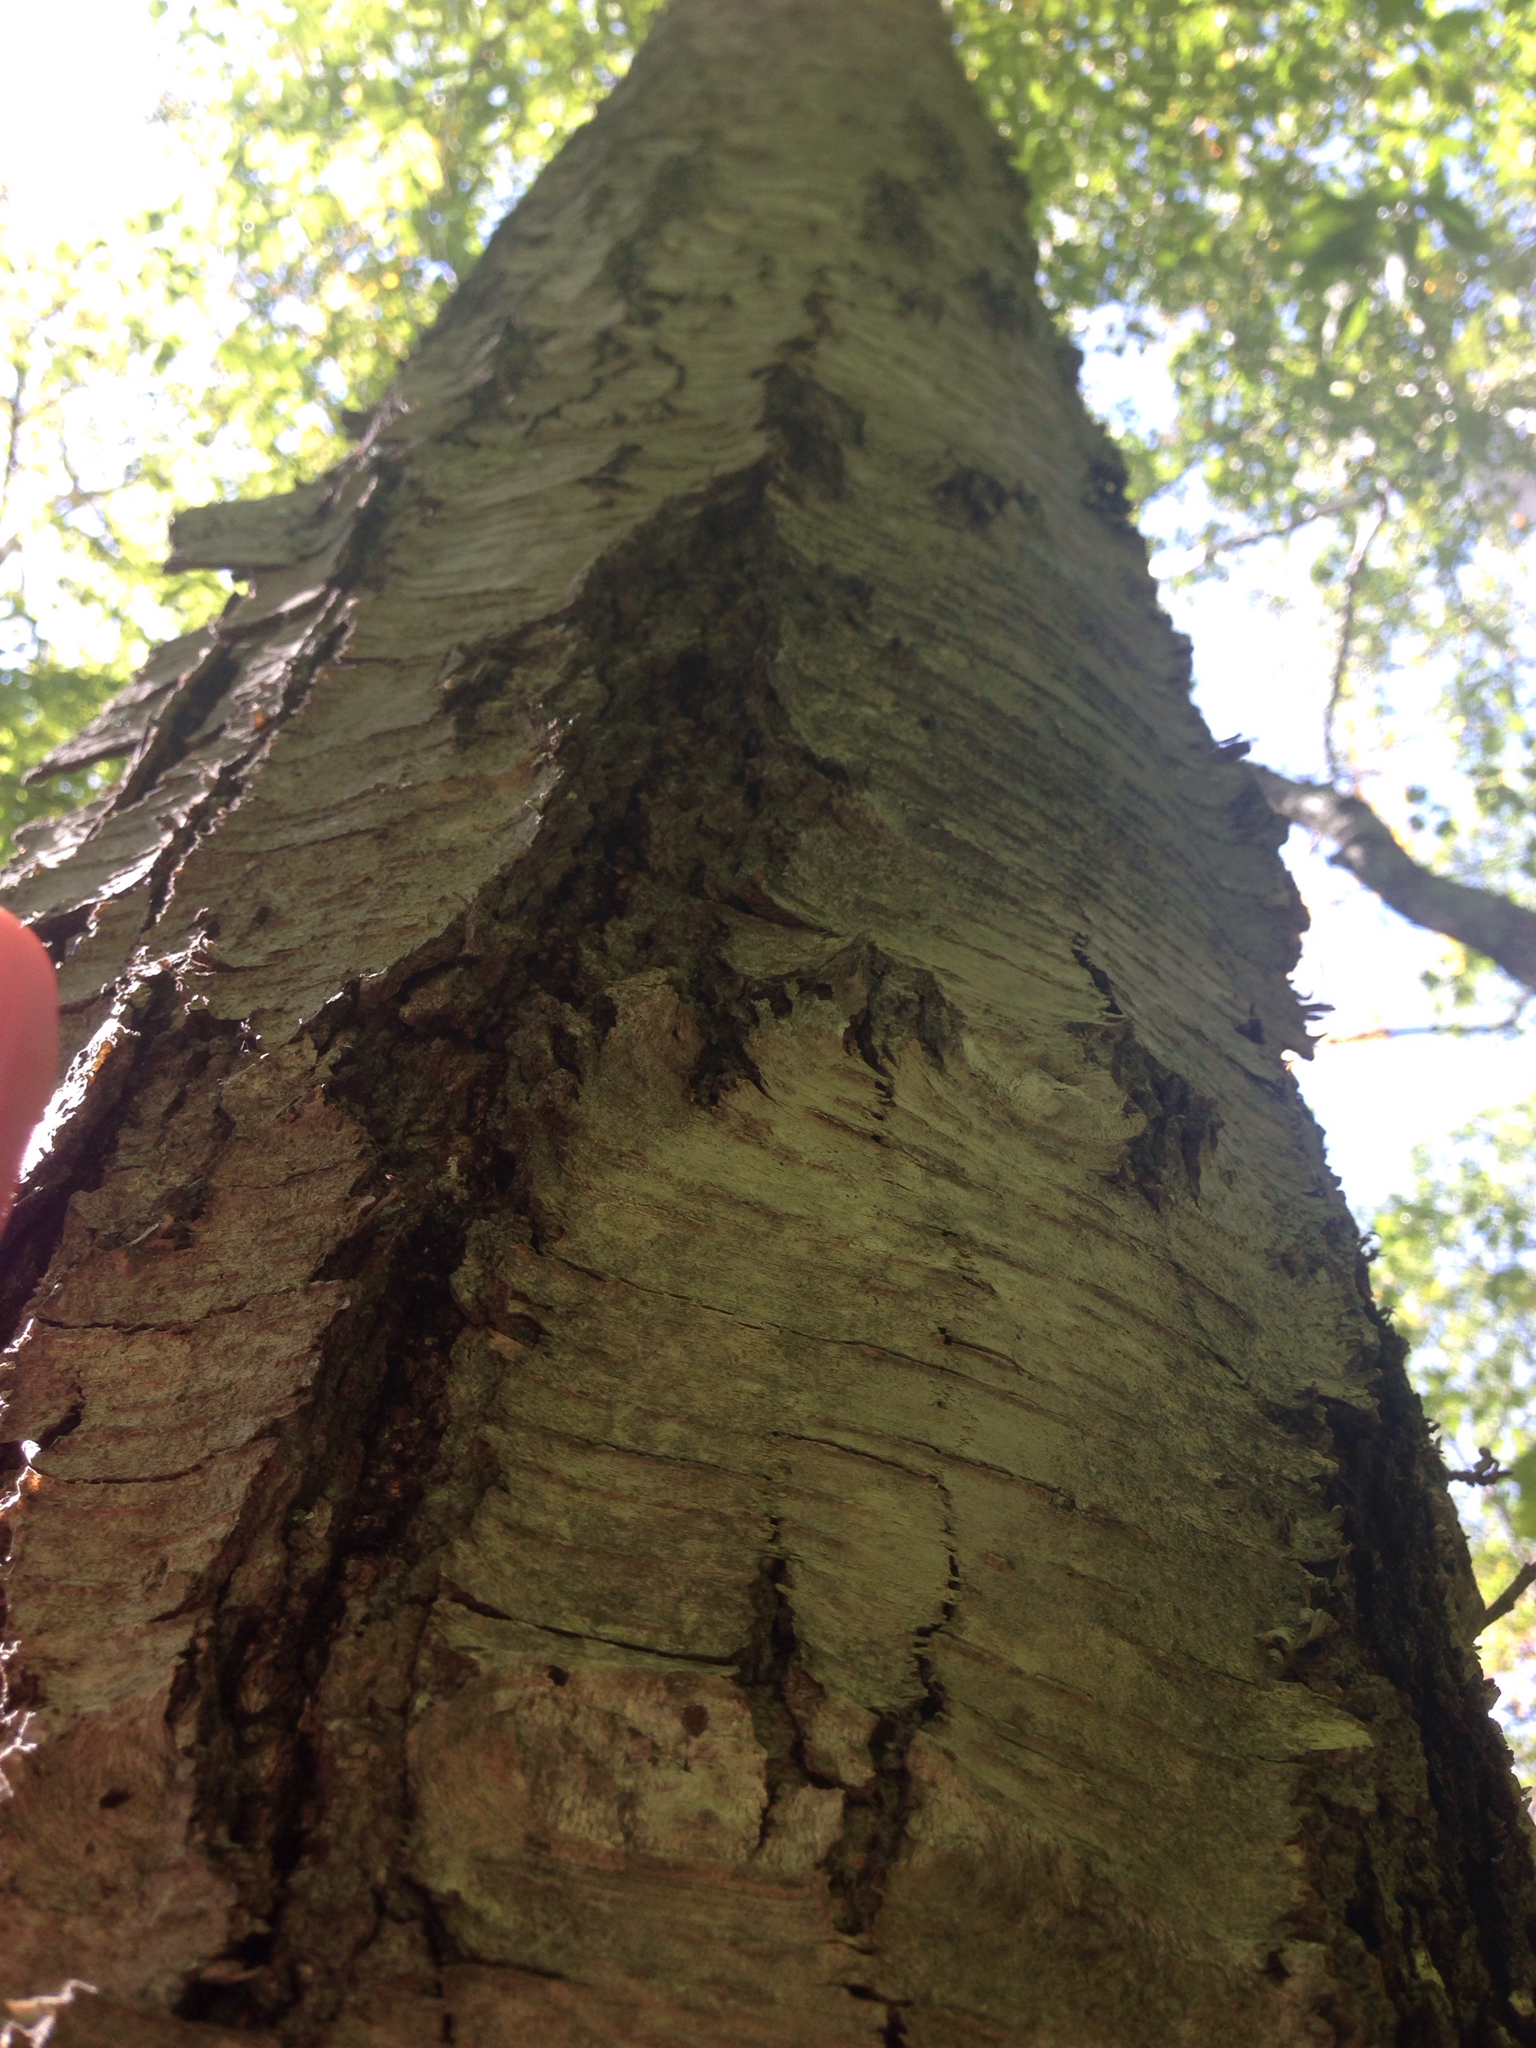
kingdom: Plantae
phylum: Tracheophyta
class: Magnoliopsida
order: Fagales
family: Betulaceae
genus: Betula
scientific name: Betula lenta
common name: Black birch
